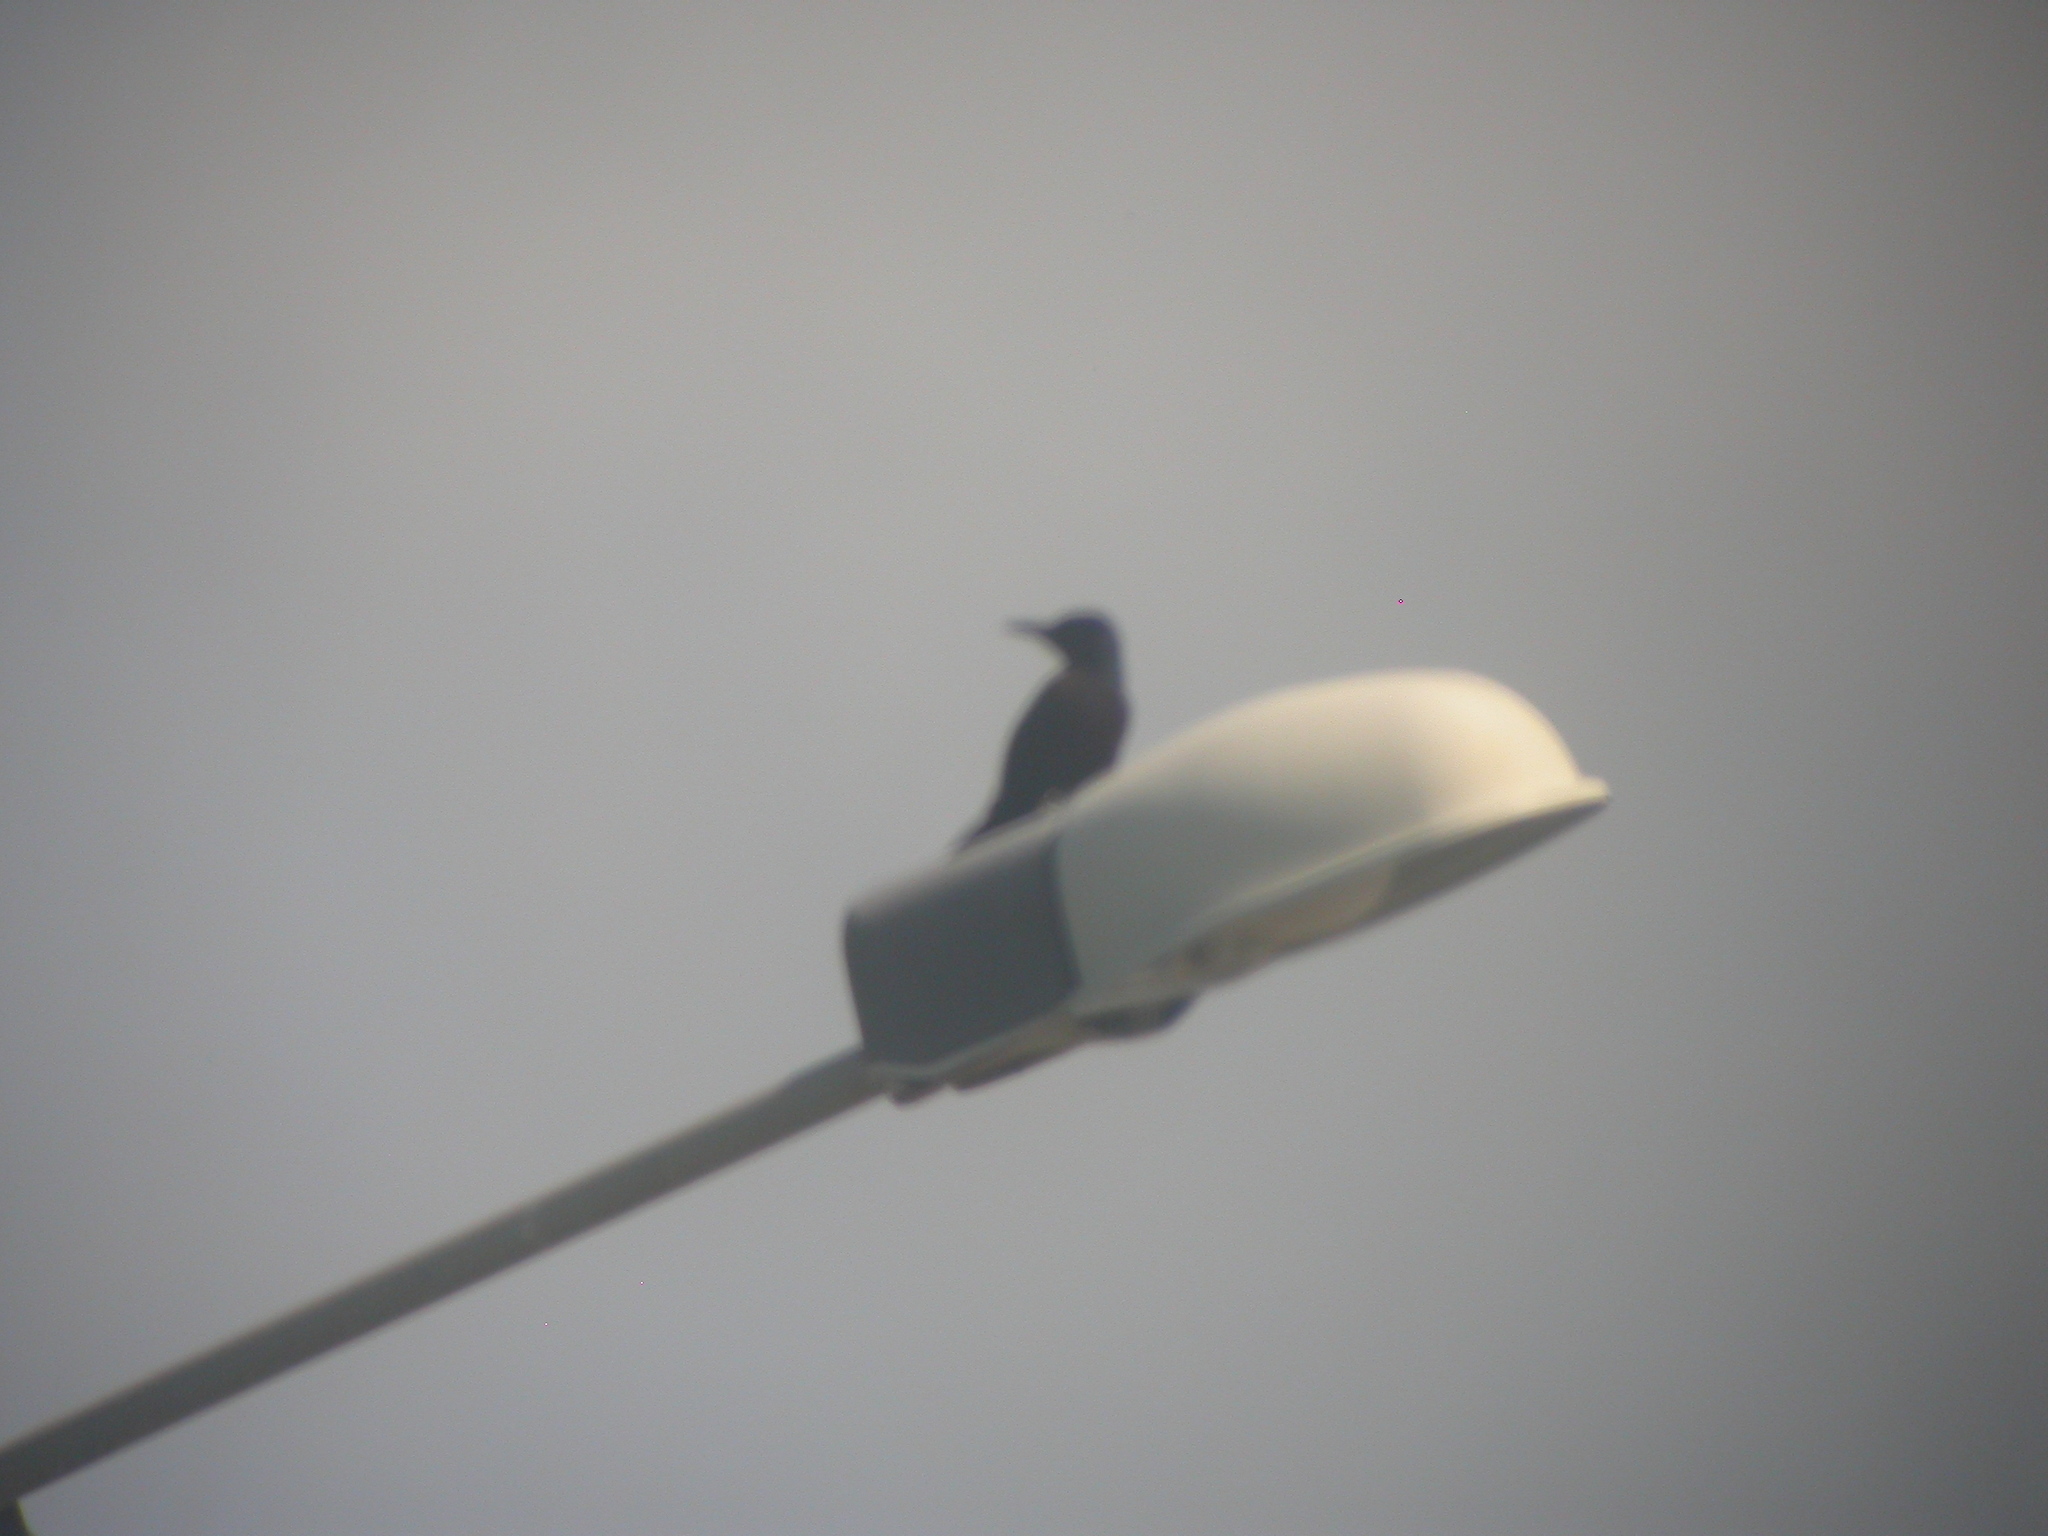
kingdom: Animalia
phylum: Chordata
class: Aves
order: Piciformes
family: Picidae
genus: Melanerpes
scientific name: Melanerpes herminieri
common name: Guadeloupe woodpecker
